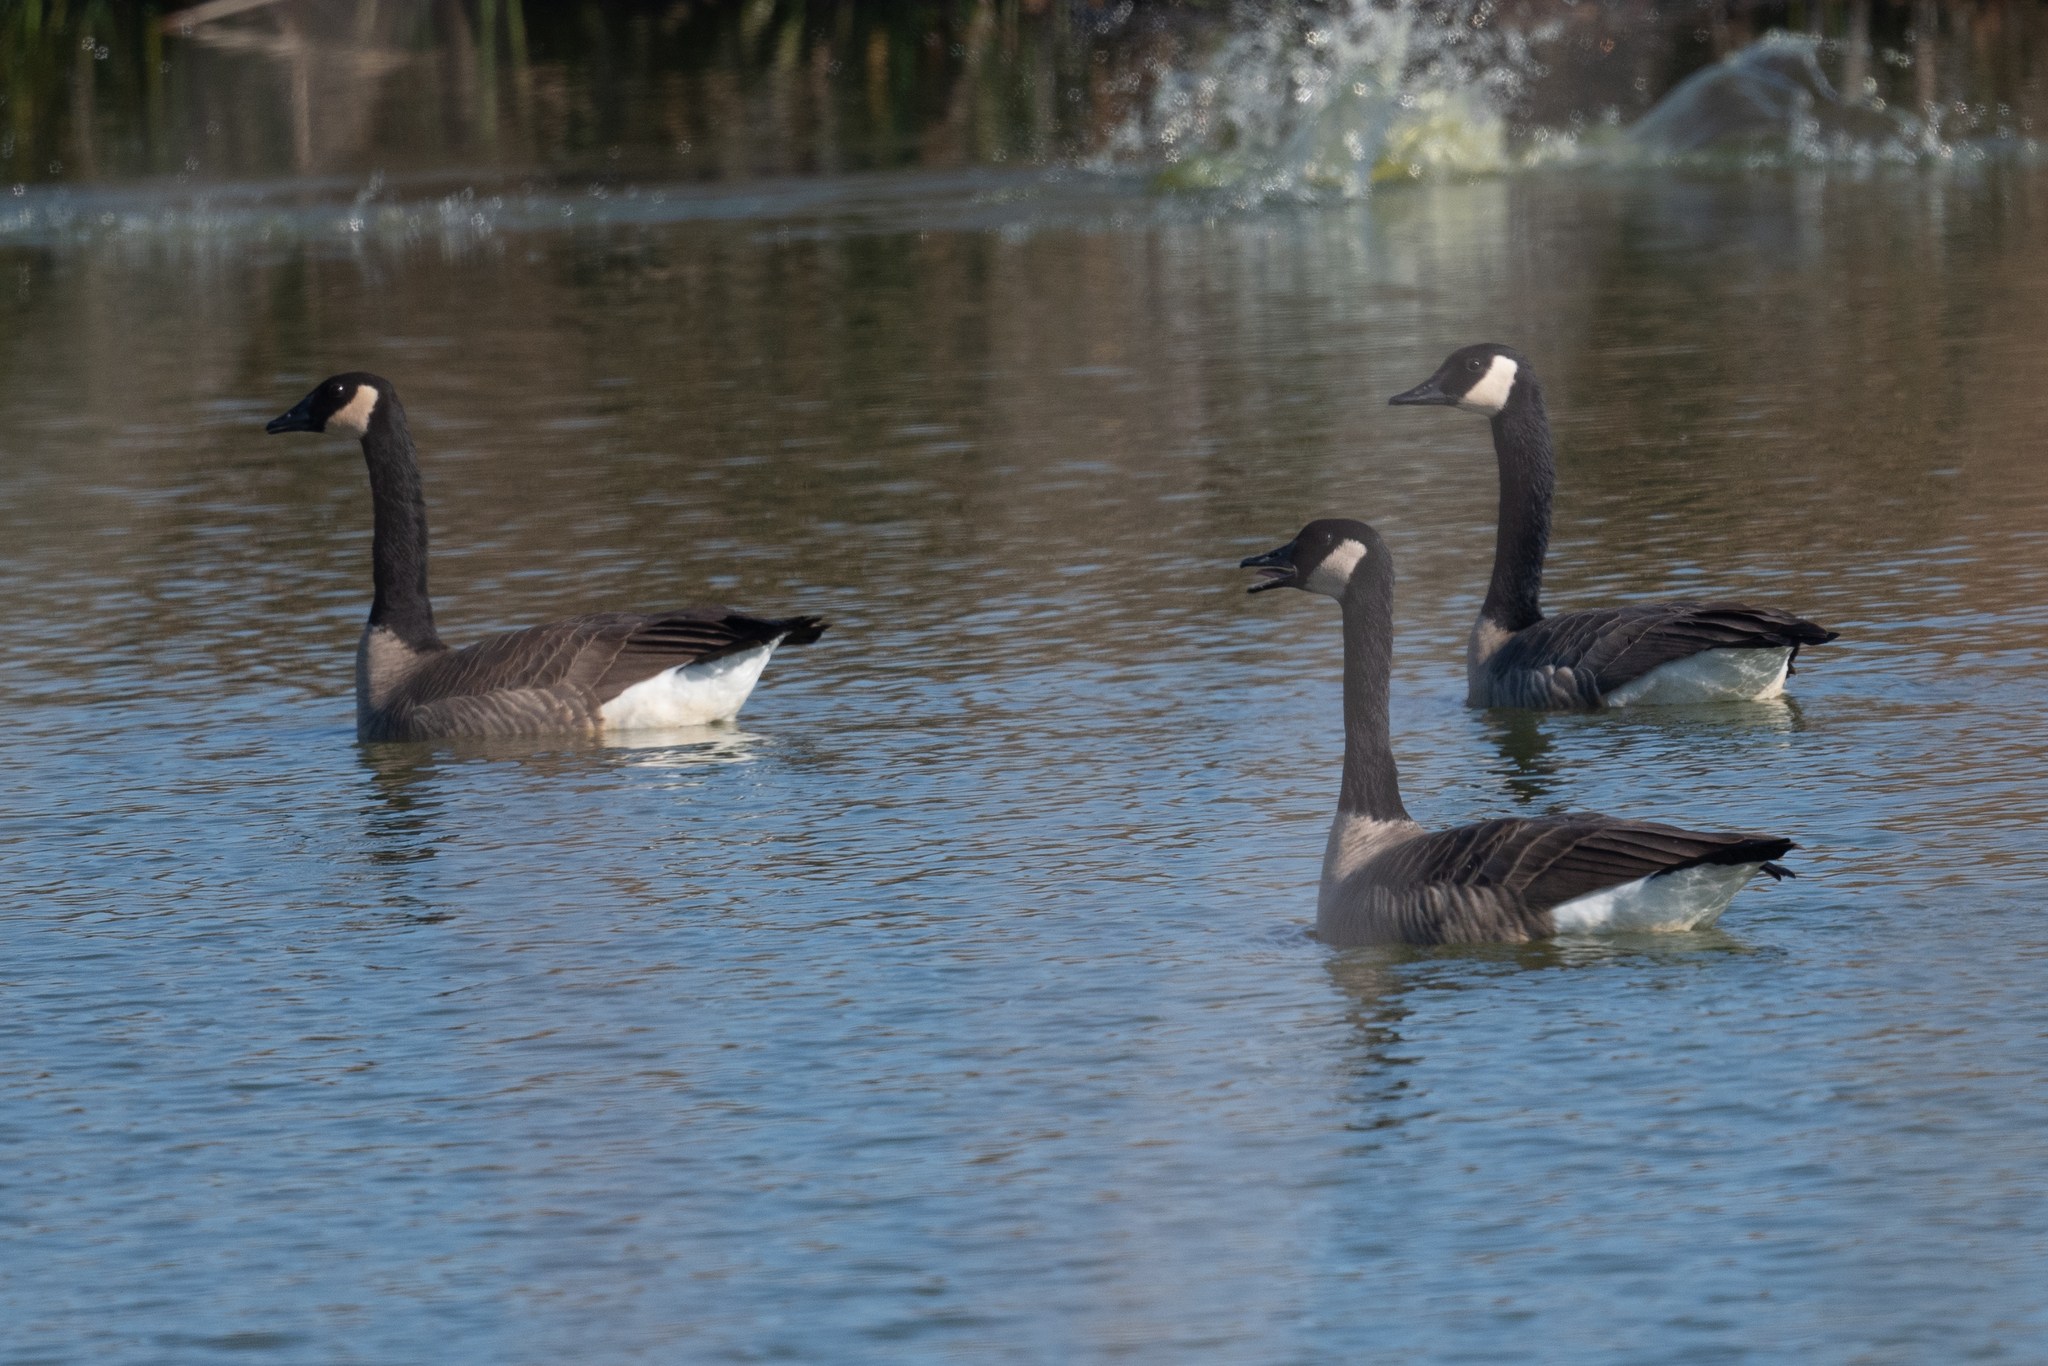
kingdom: Animalia
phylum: Chordata
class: Aves
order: Anseriformes
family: Anatidae
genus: Branta
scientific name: Branta canadensis
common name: Canada goose
